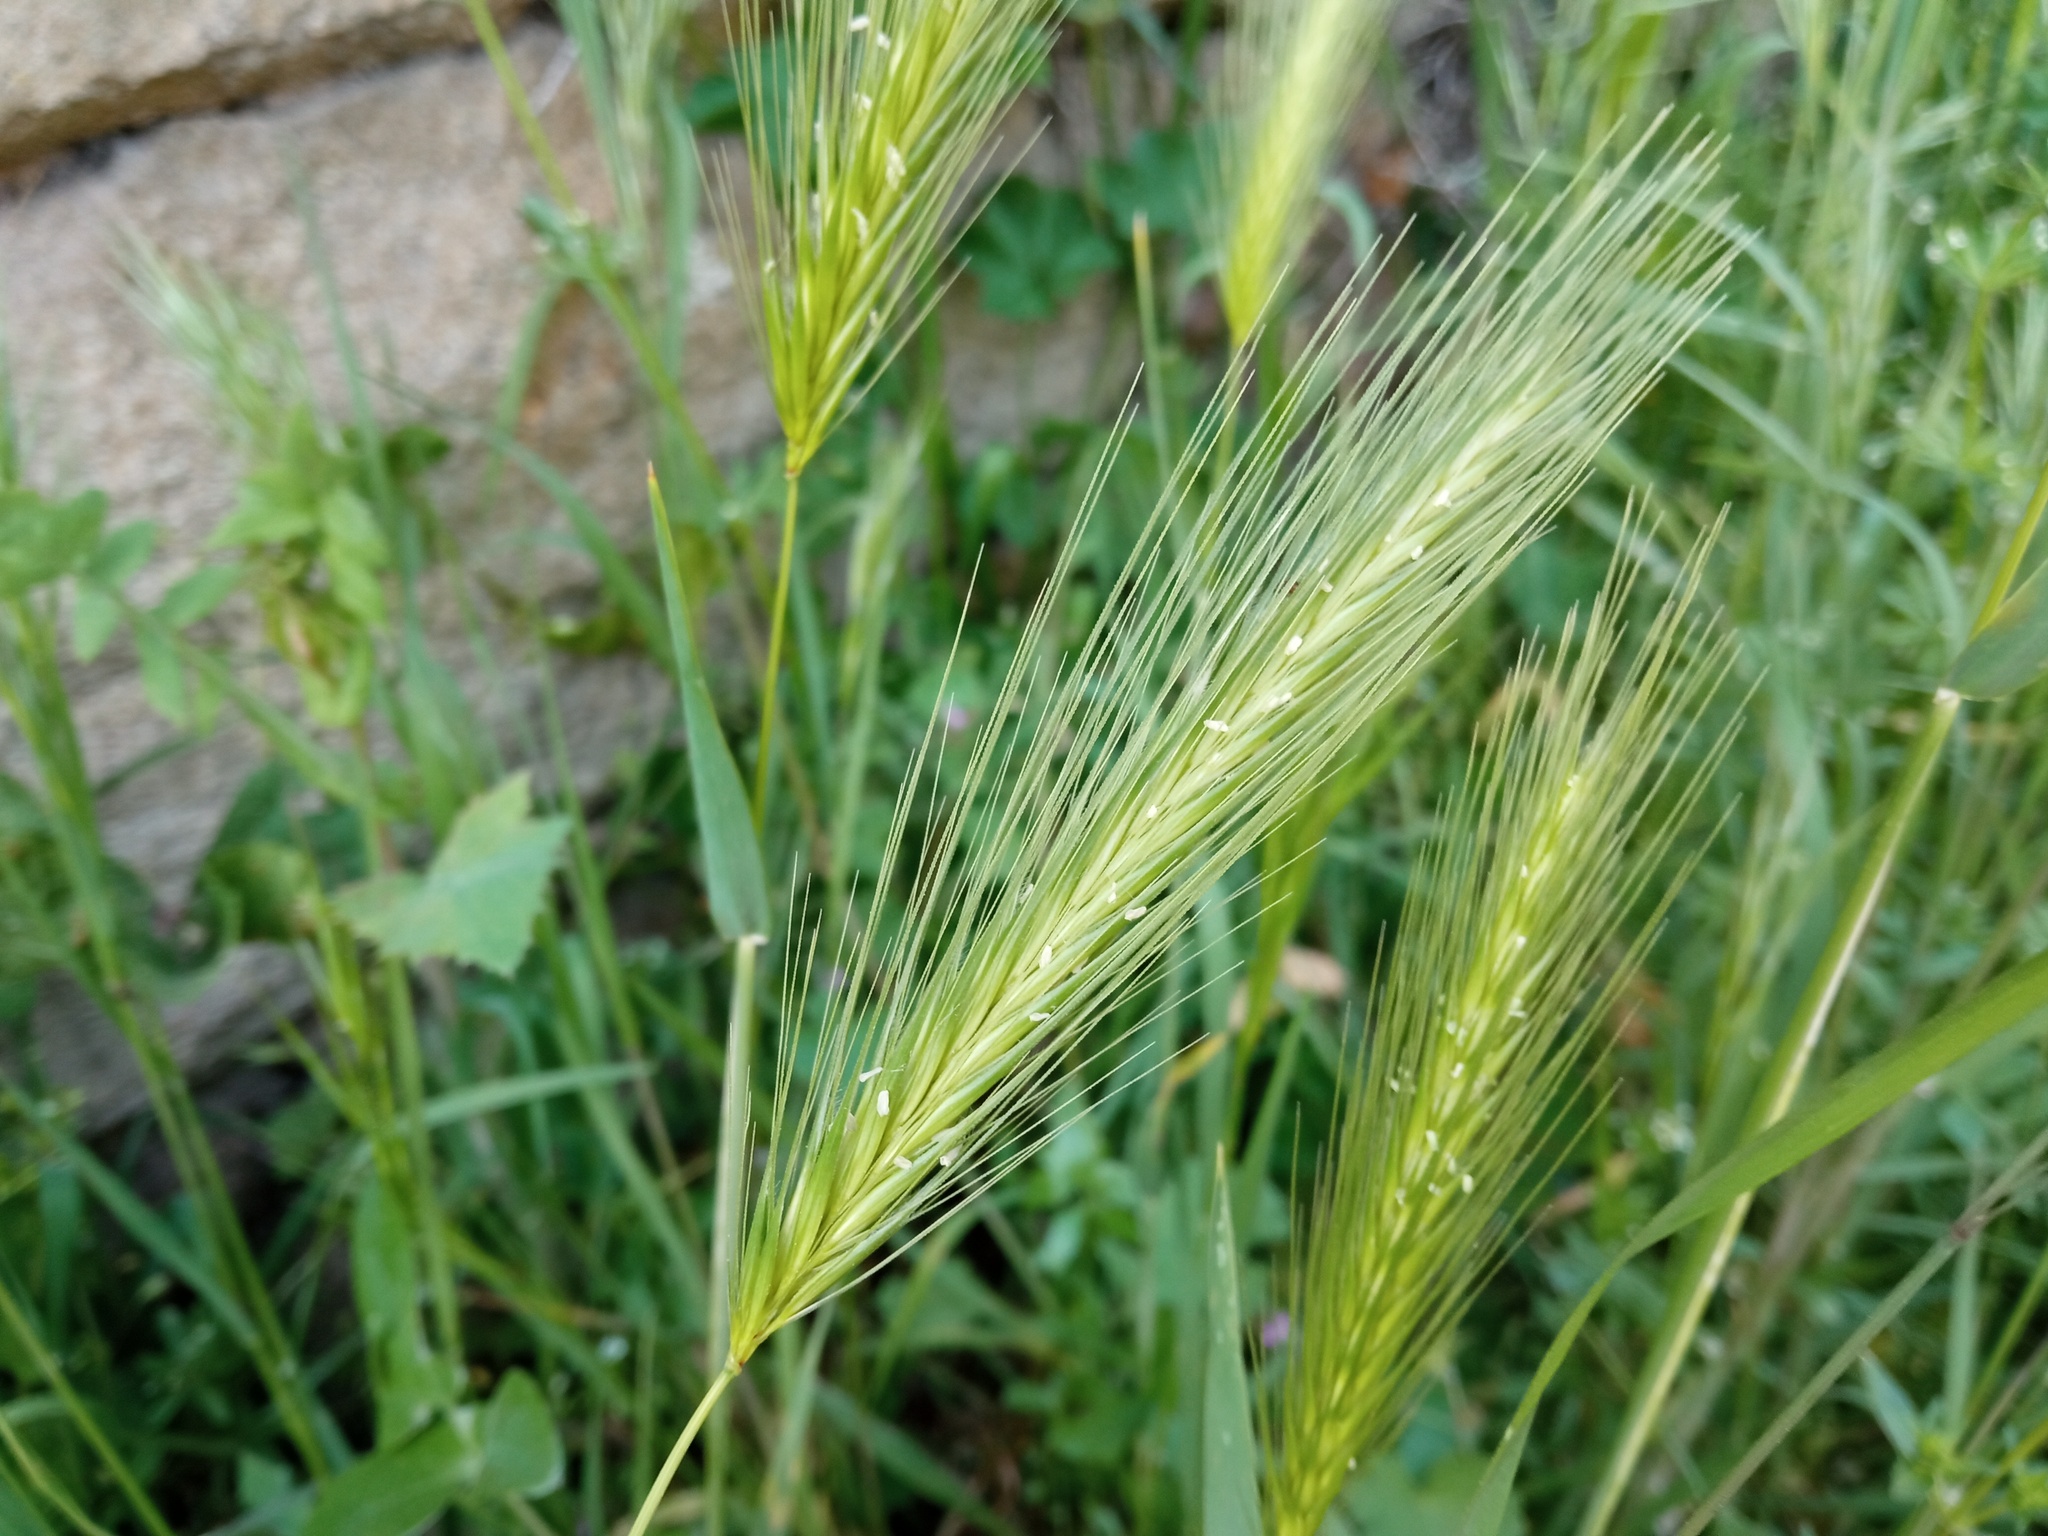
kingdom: Plantae
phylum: Tracheophyta
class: Liliopsida
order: Poales
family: Poaceae
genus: Hordeum
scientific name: Hordeum murinum
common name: Wall barley
